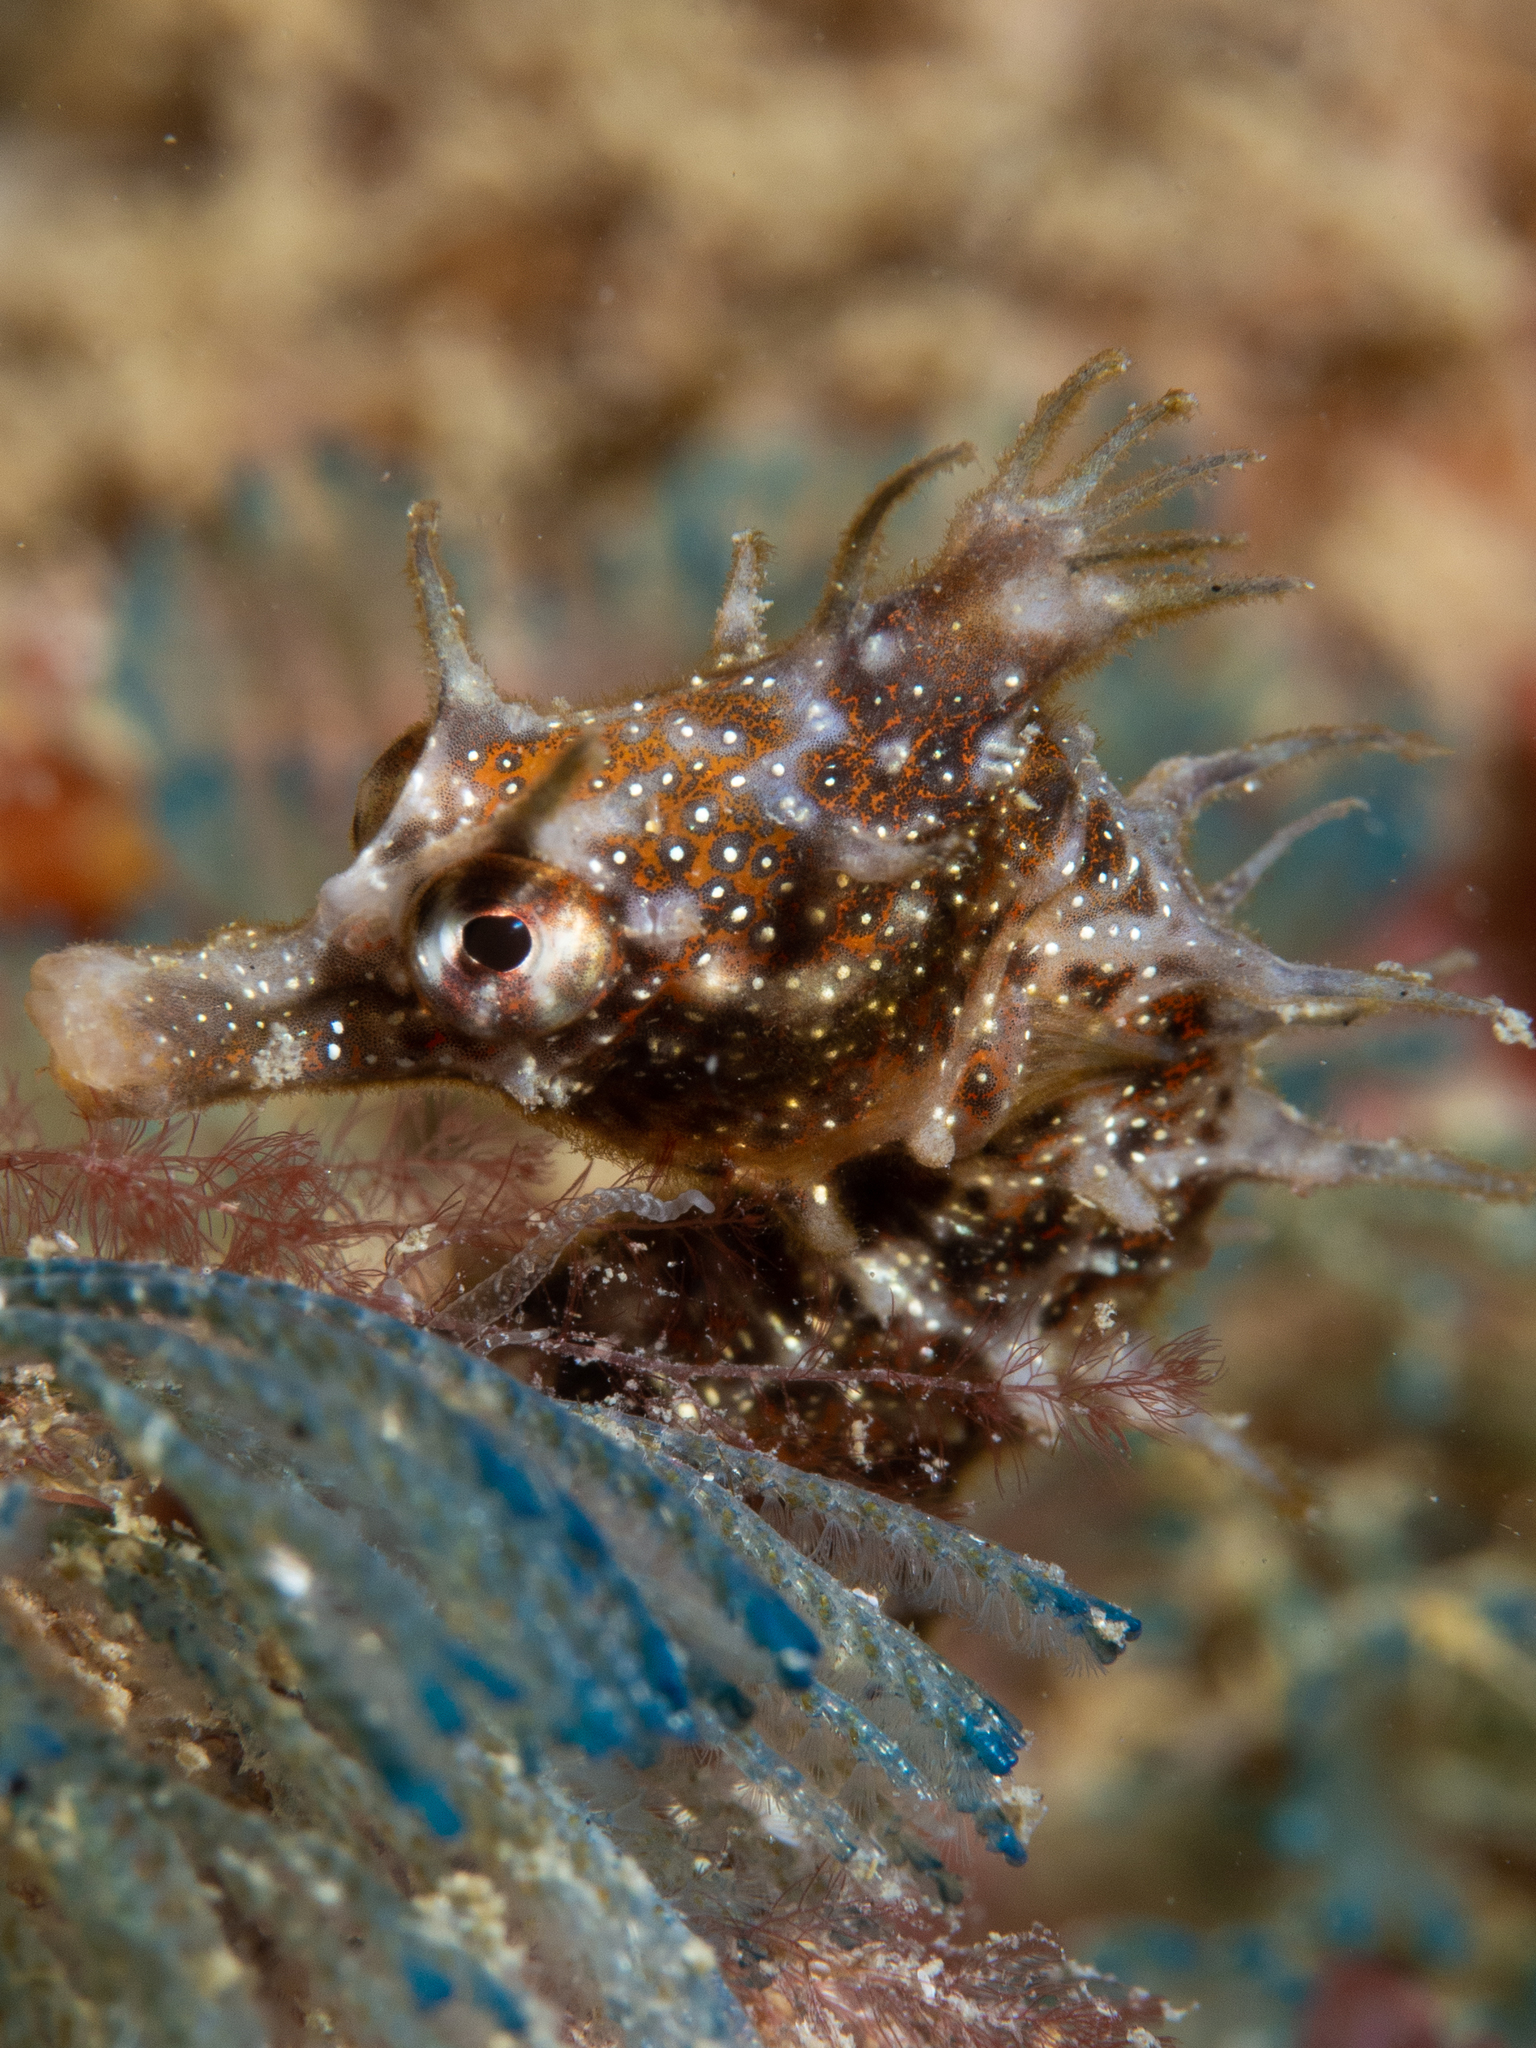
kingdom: Animalia
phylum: Chordata
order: Syngnathiformes
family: Syngnathidae
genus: Hippocampus
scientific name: Hippocampus breviceps
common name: Knobby seahorse
